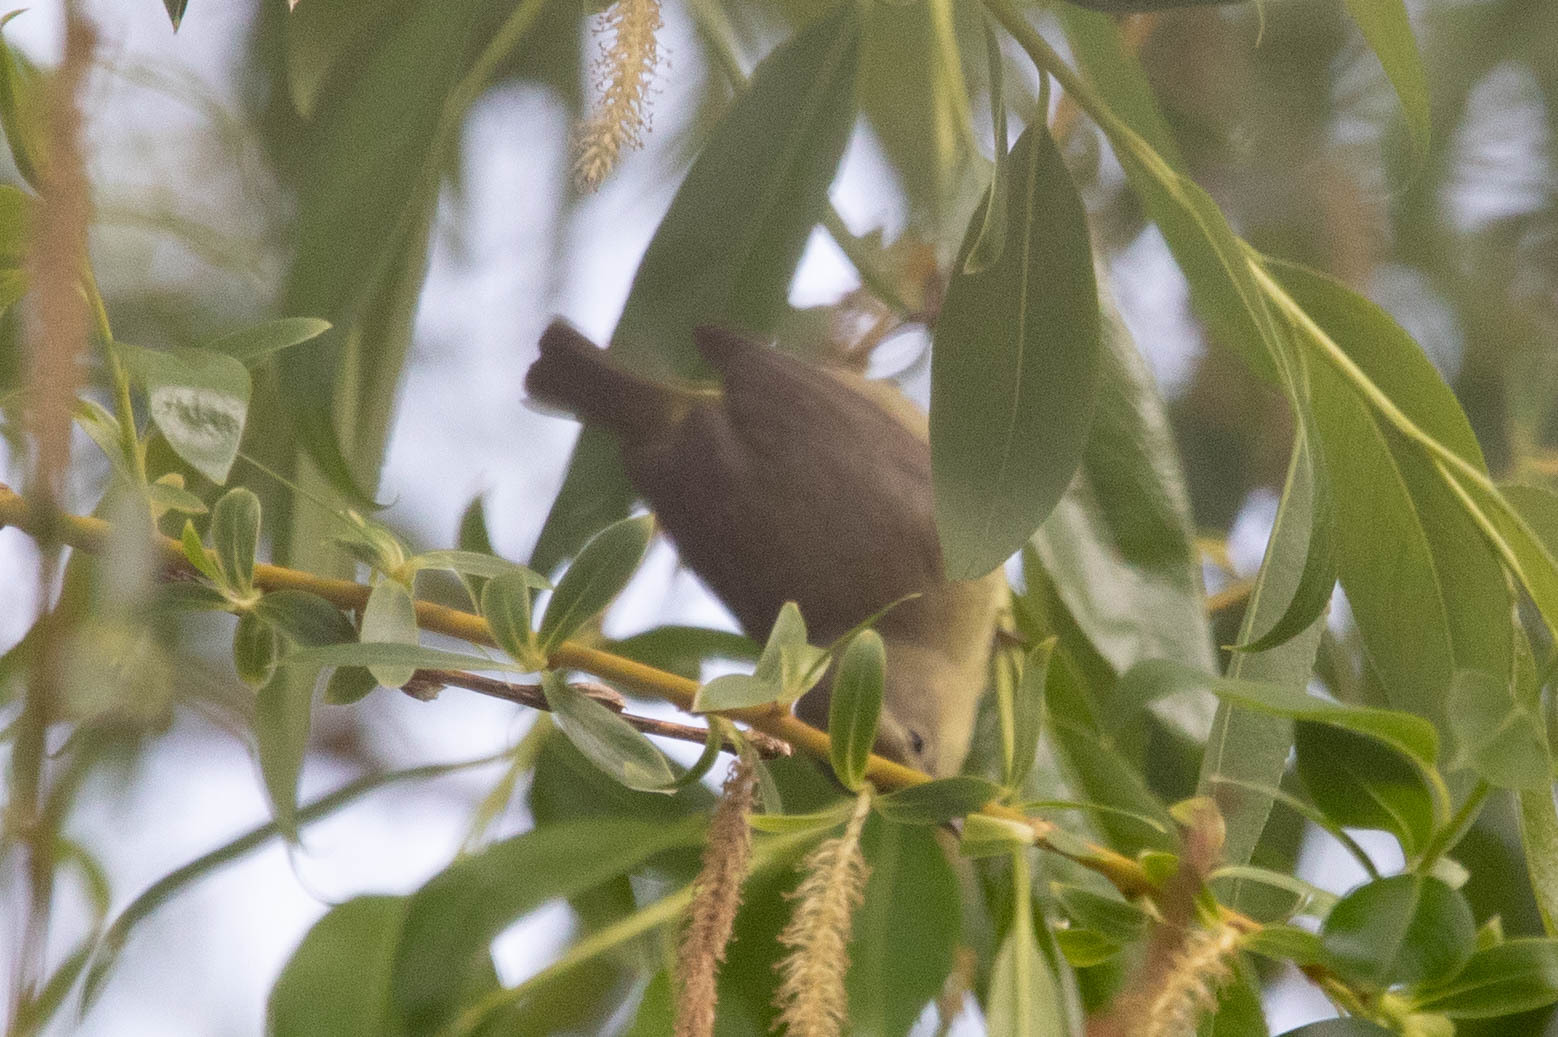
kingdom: Animalia
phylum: Chordata
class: Aves
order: Passeriformes
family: Parulidae
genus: Leiothlypis
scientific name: Leiothlypis celata
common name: Orange-crowned warbler
